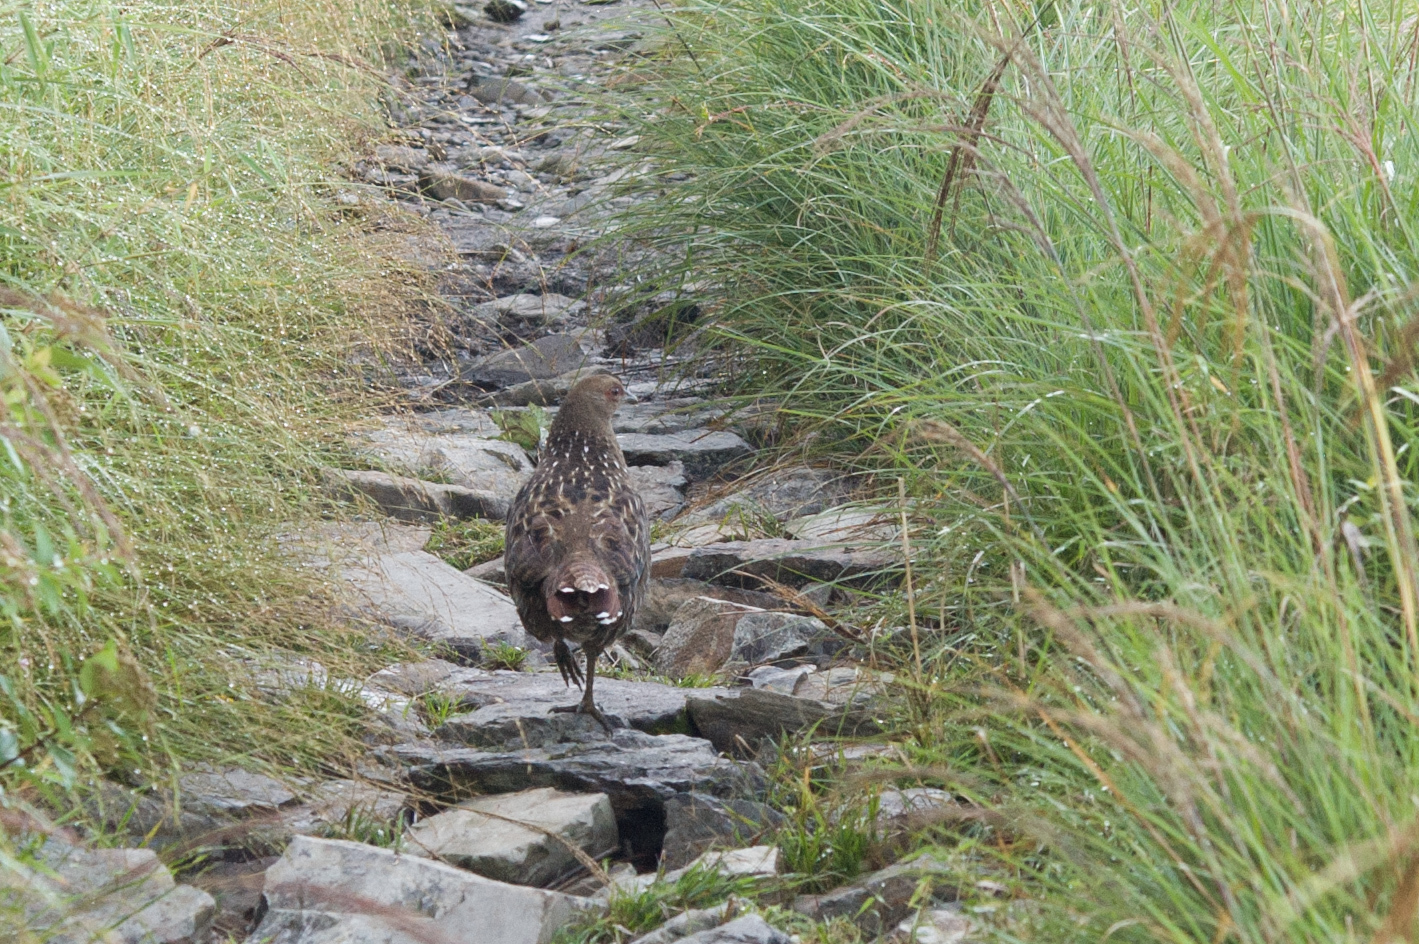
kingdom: Animalia
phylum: Chordata
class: Aves
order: Galliformes
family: Phasianidae
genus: Syrmaticus
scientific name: Syrmaticus mikado
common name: Mikado pheasant
